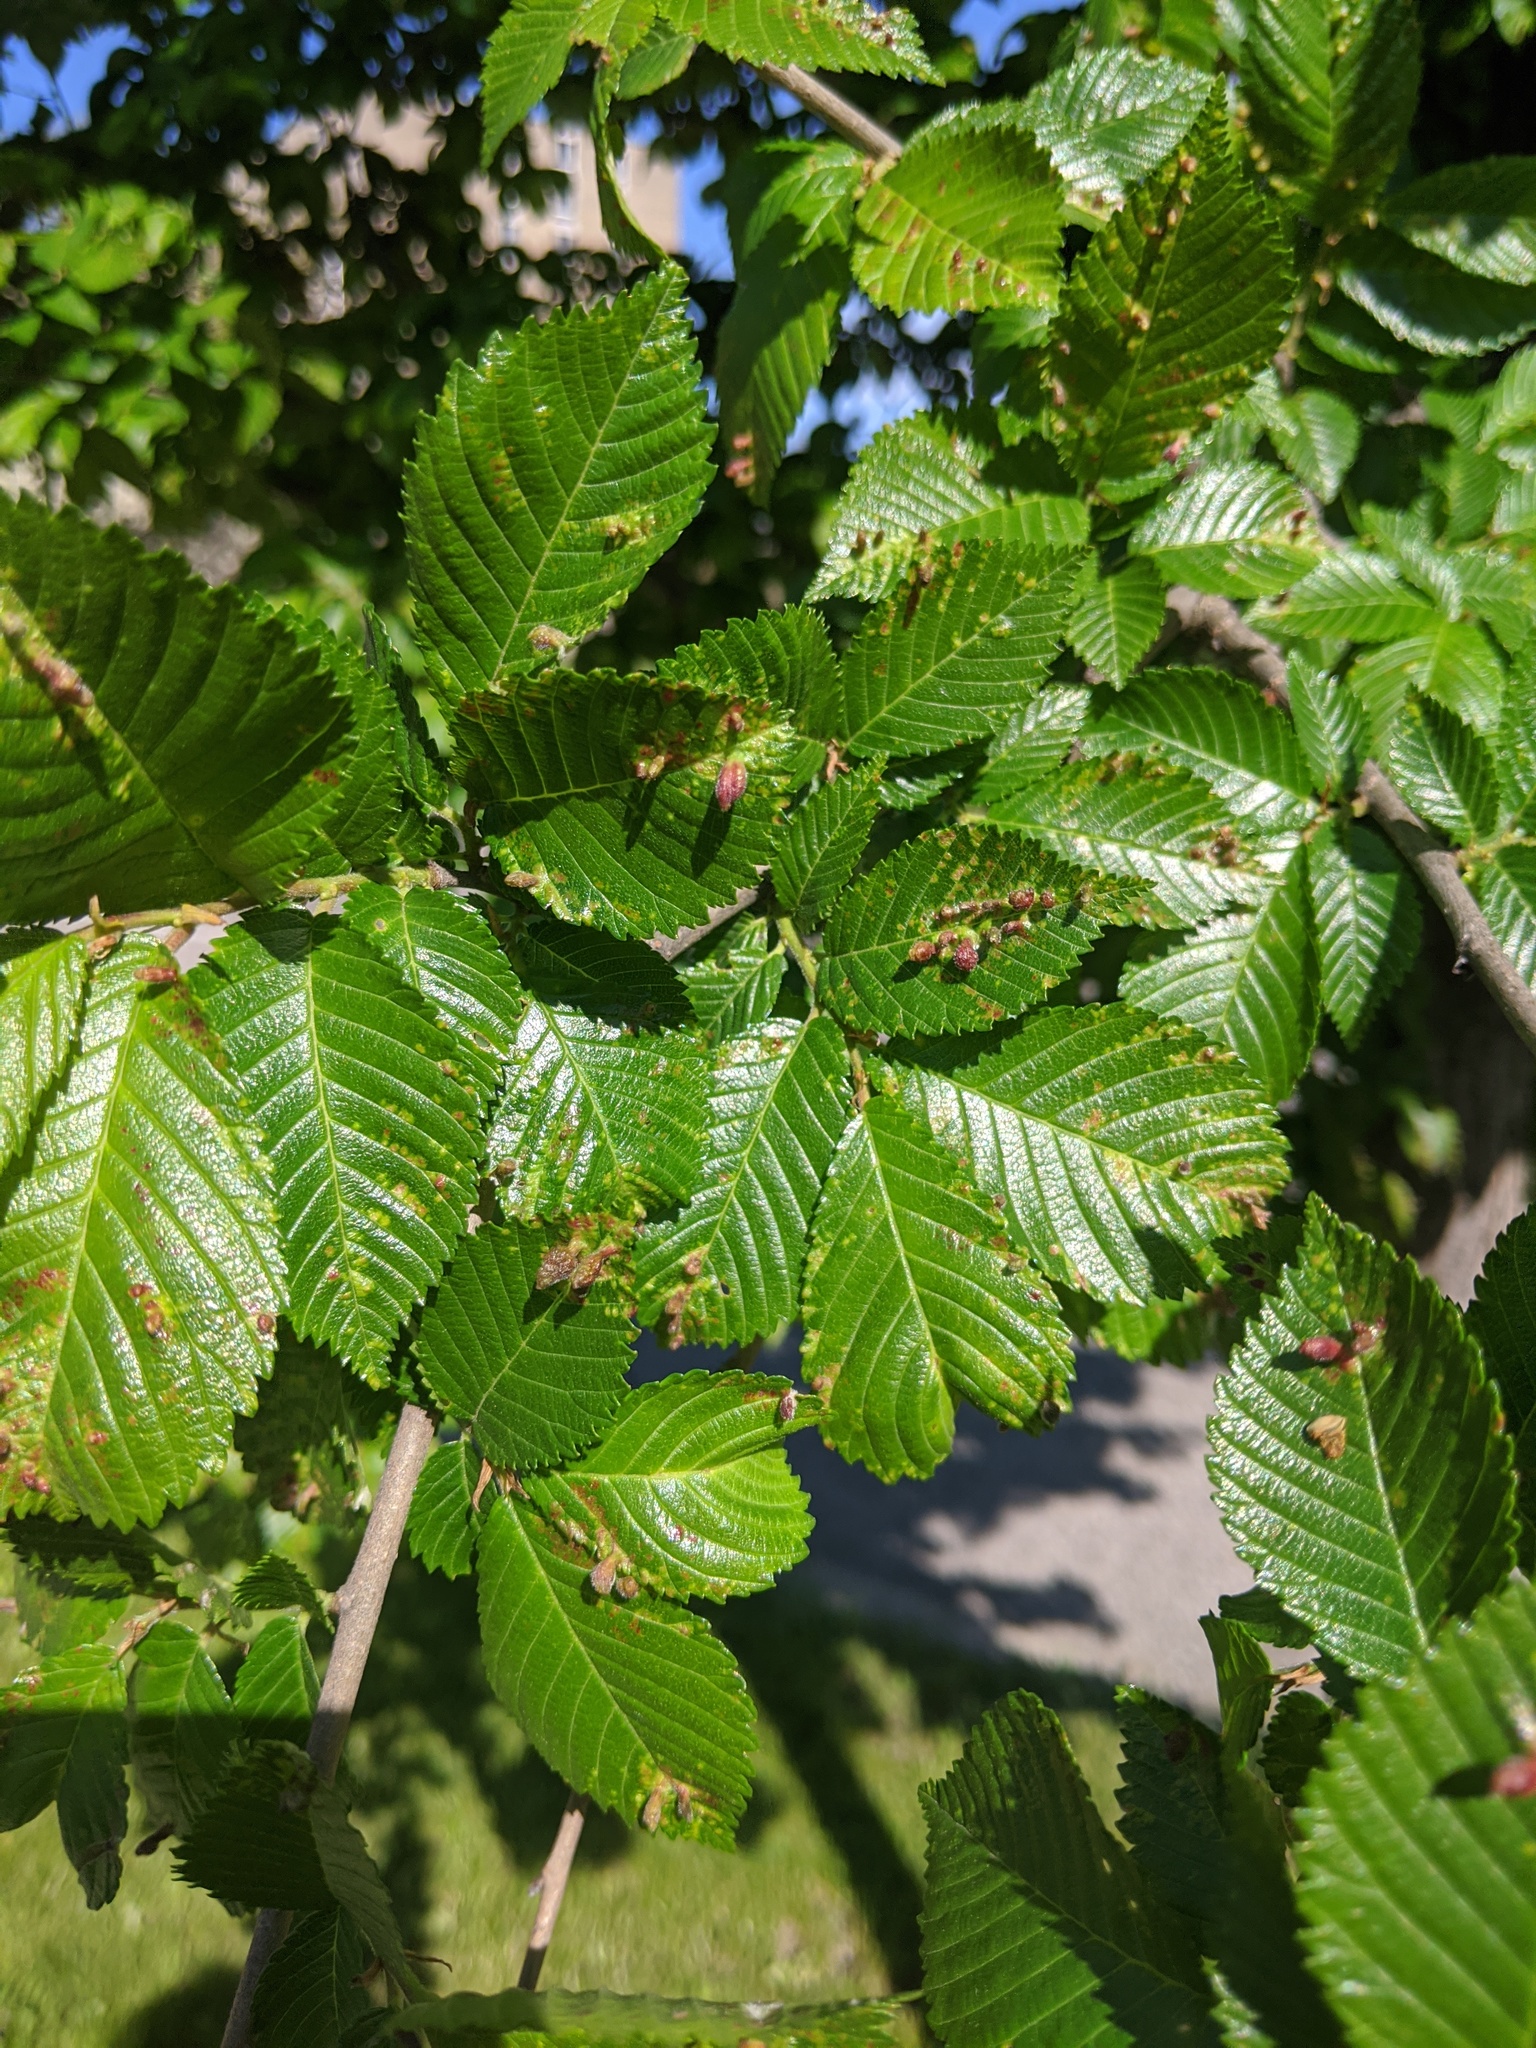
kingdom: Animalia
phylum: Arthropoda
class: Insecta
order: Hemiptera
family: Aphididae
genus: Tetraneura
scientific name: Tetraneura nigriabdominalis
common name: Aphid
